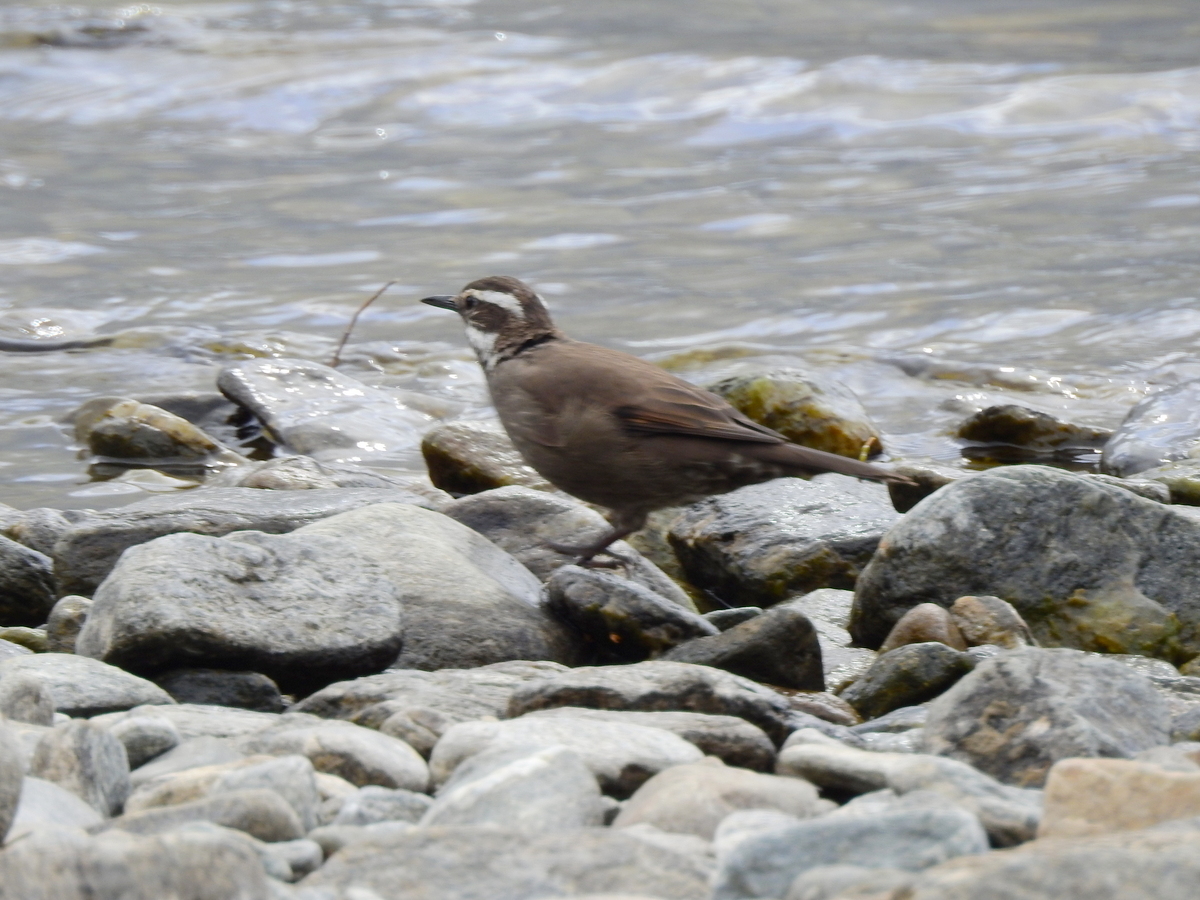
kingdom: Animalia
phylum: Chordata
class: Aves
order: Passeriformes
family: Furnariidae
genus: Cinclodes
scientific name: Cinclodes patagonicus
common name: Dark-bellied cinclodes
